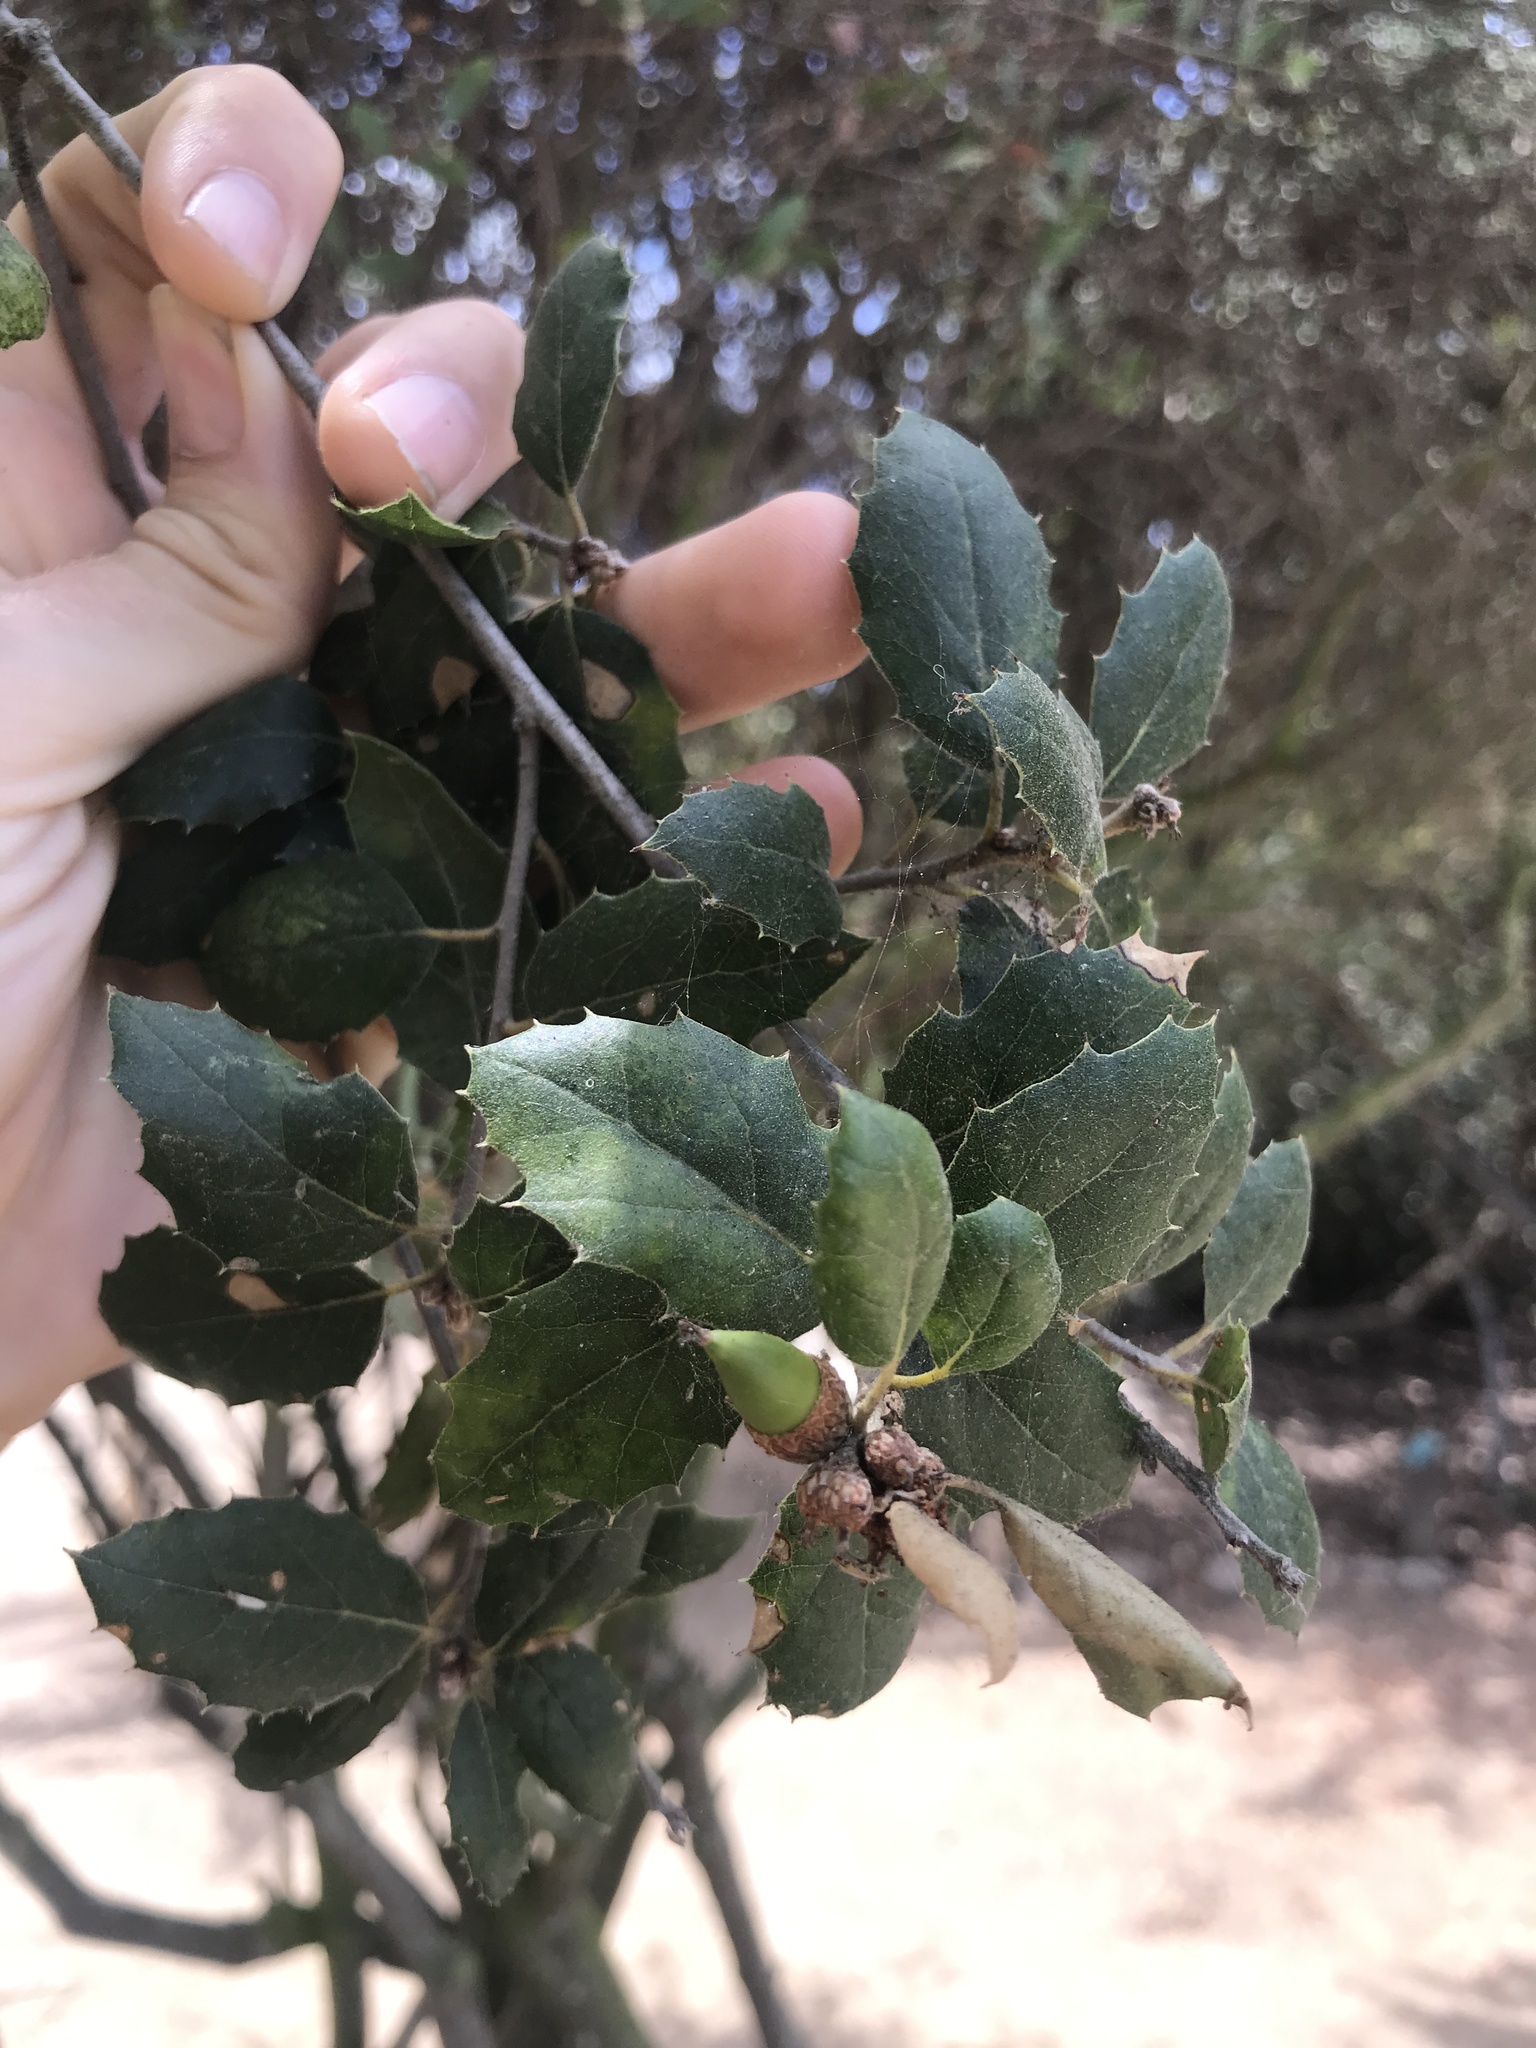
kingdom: Plantae
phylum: Tracheophyta
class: Magnoliopsida
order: Fagales
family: Fagaceae
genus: Quercus
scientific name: Quercus agrifolia
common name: California live oak
